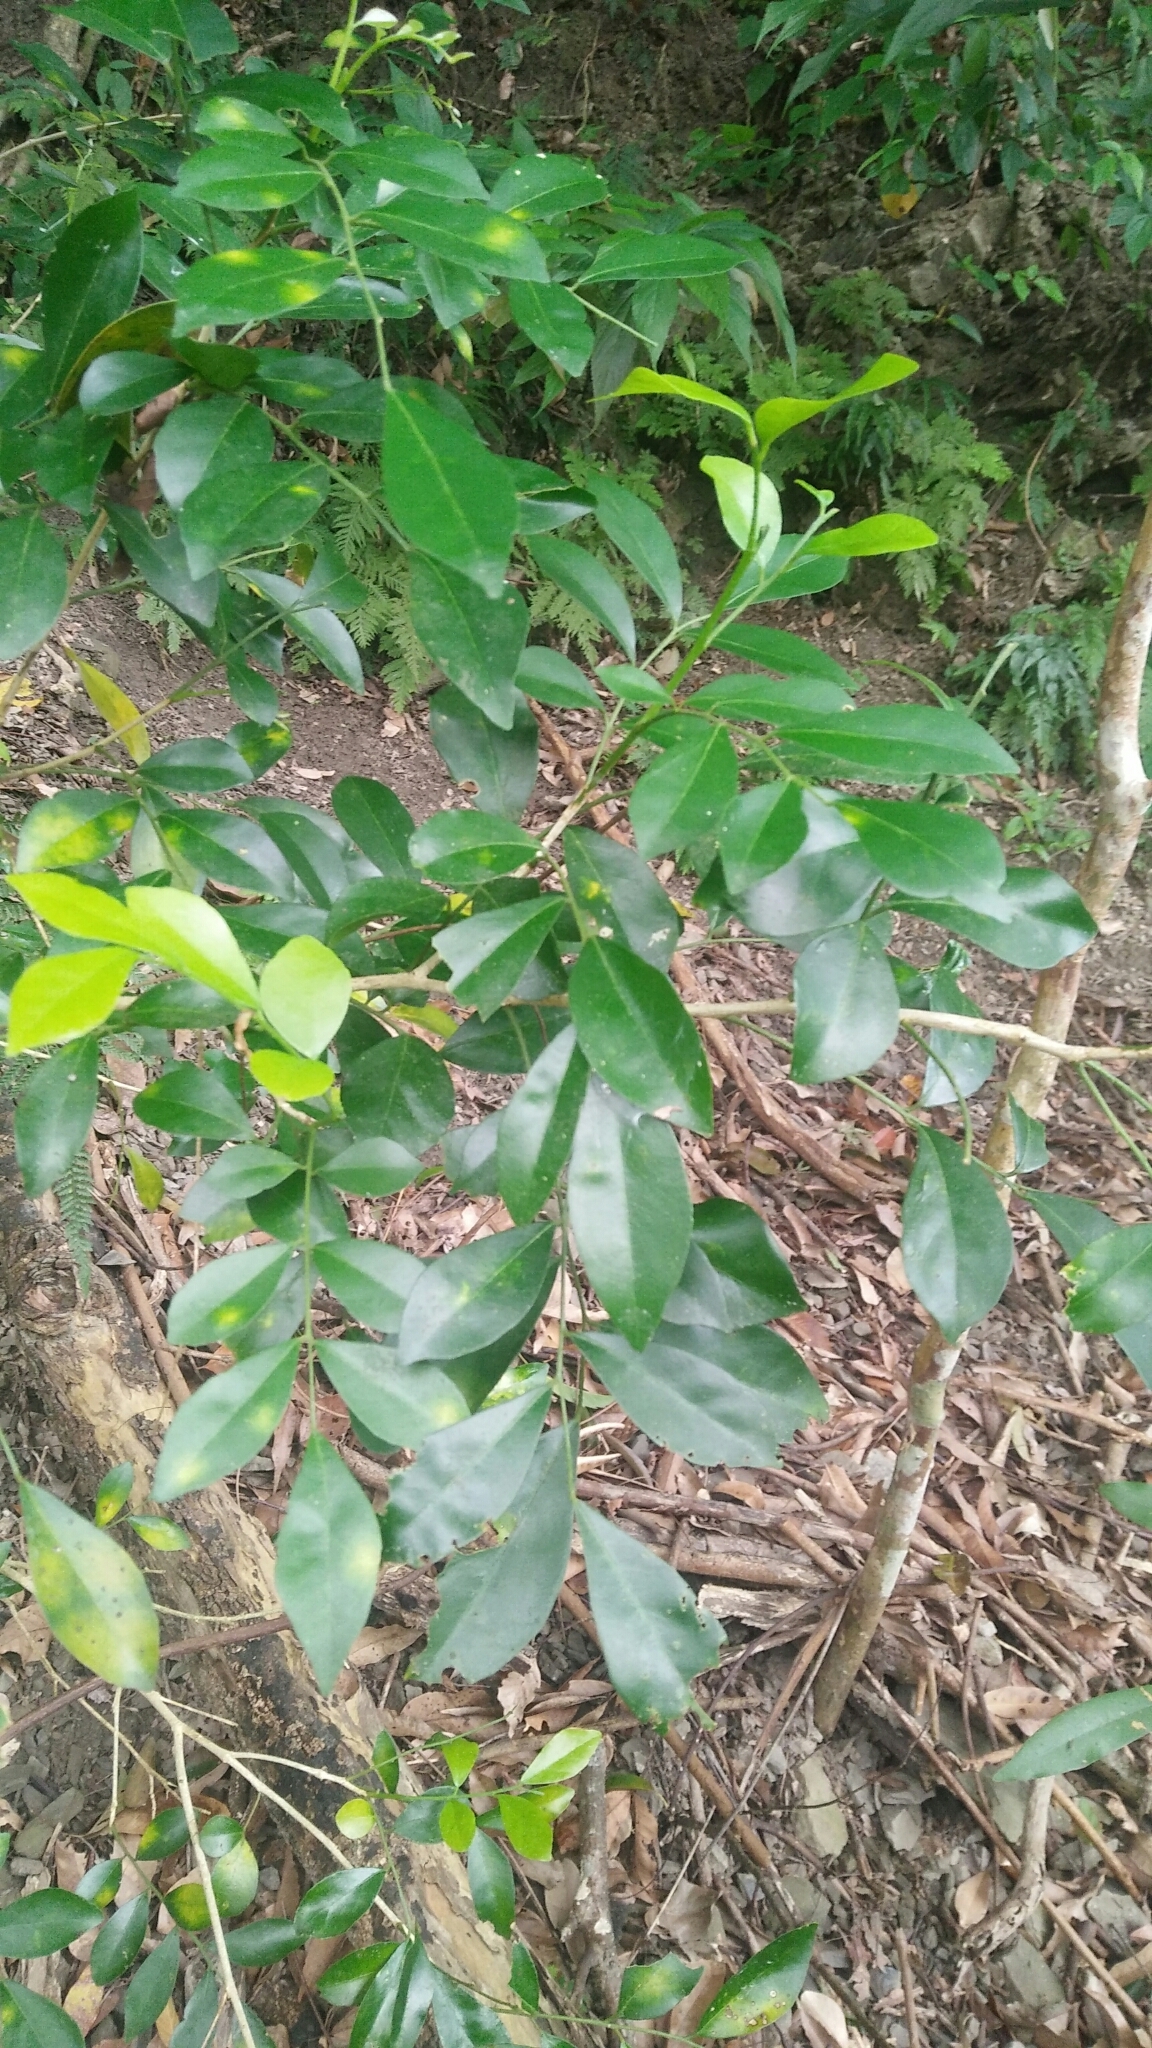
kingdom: Plantae
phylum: Tracheophyta
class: Magnoliopsida
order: Sapindales
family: Rutaceae
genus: Murraya
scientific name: Murraya paniculata
